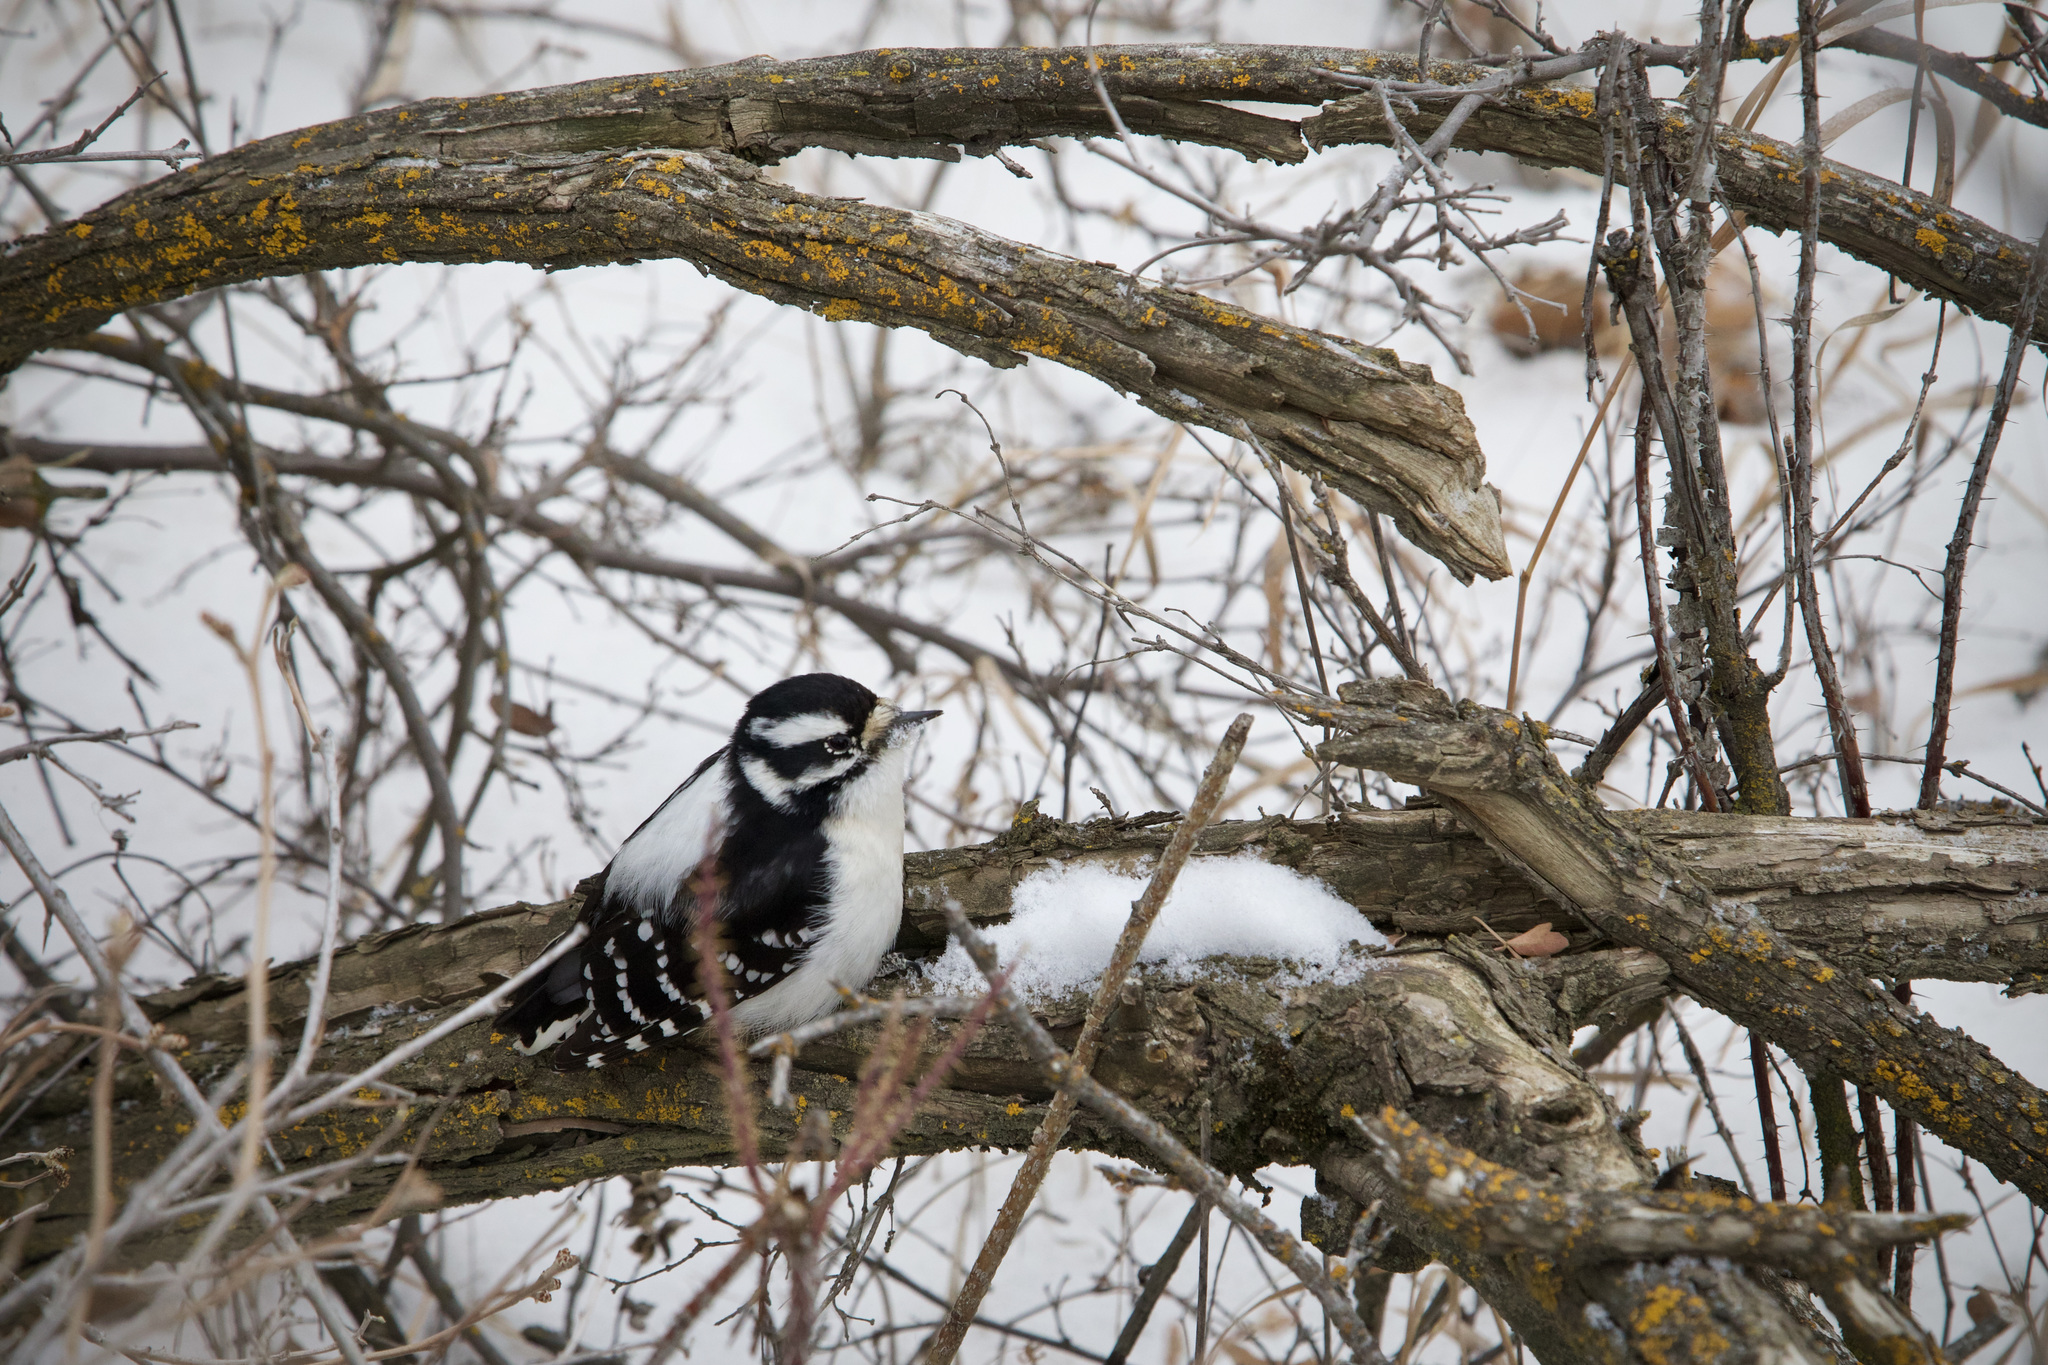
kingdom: Animalia
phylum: Chordata
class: Aves
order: Piciformes
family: Picidae
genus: Dryobates
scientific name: Dryobates pubescens
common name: Downy woodpecker
